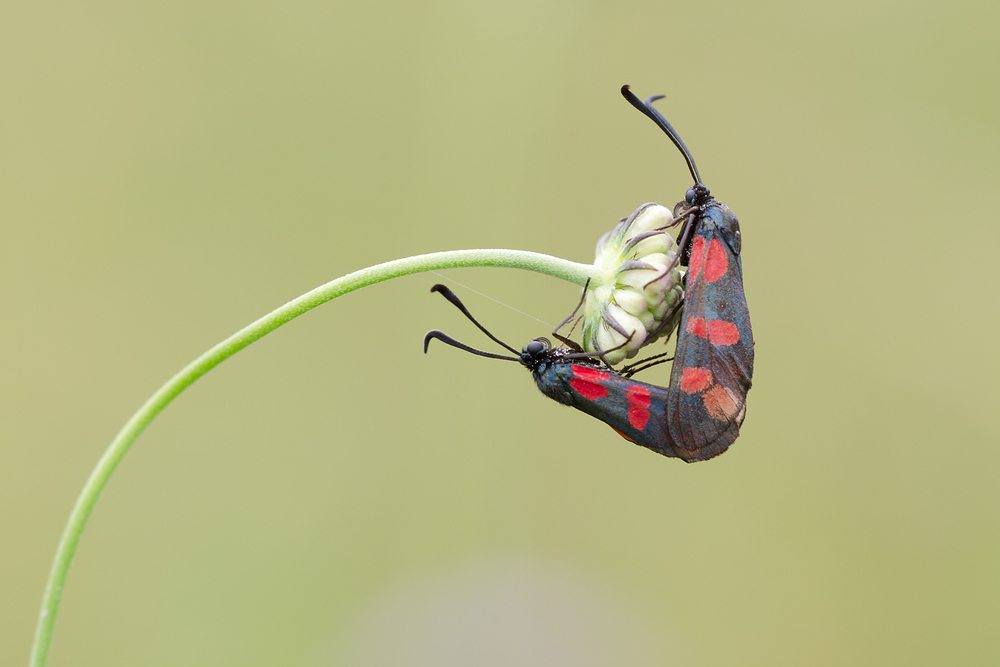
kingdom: Animalia
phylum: Arthropoda
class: Insecta
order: Lepidoptera
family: Zygaenidae
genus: Zygaena
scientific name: Zygaena filipendulae
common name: Six-spot burnet
